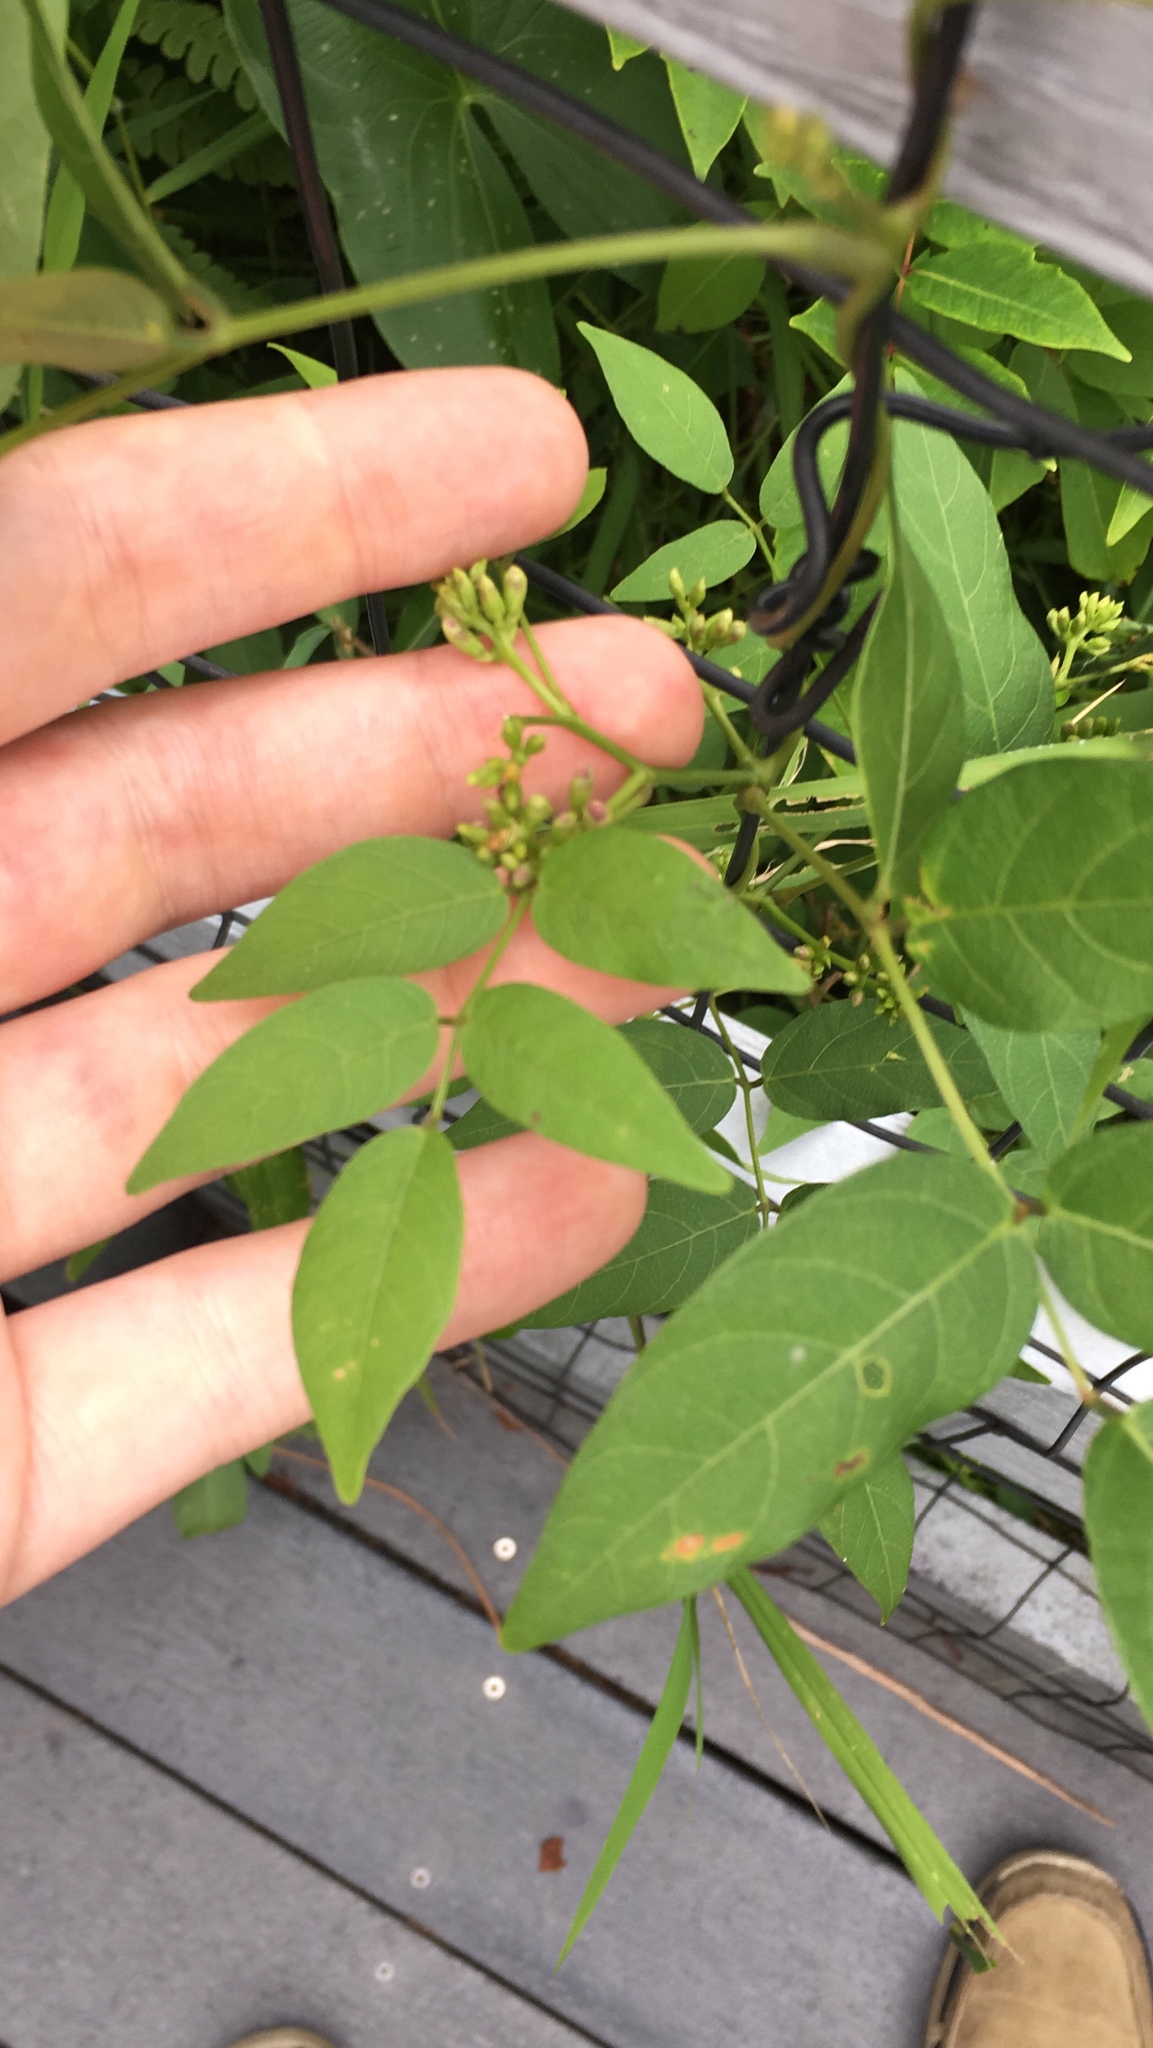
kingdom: Plantae
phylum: Tracheophyta
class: Magnoliopsida
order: Fabales
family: Fabaceae
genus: Apios
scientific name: Apios americana
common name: American potato-bean
